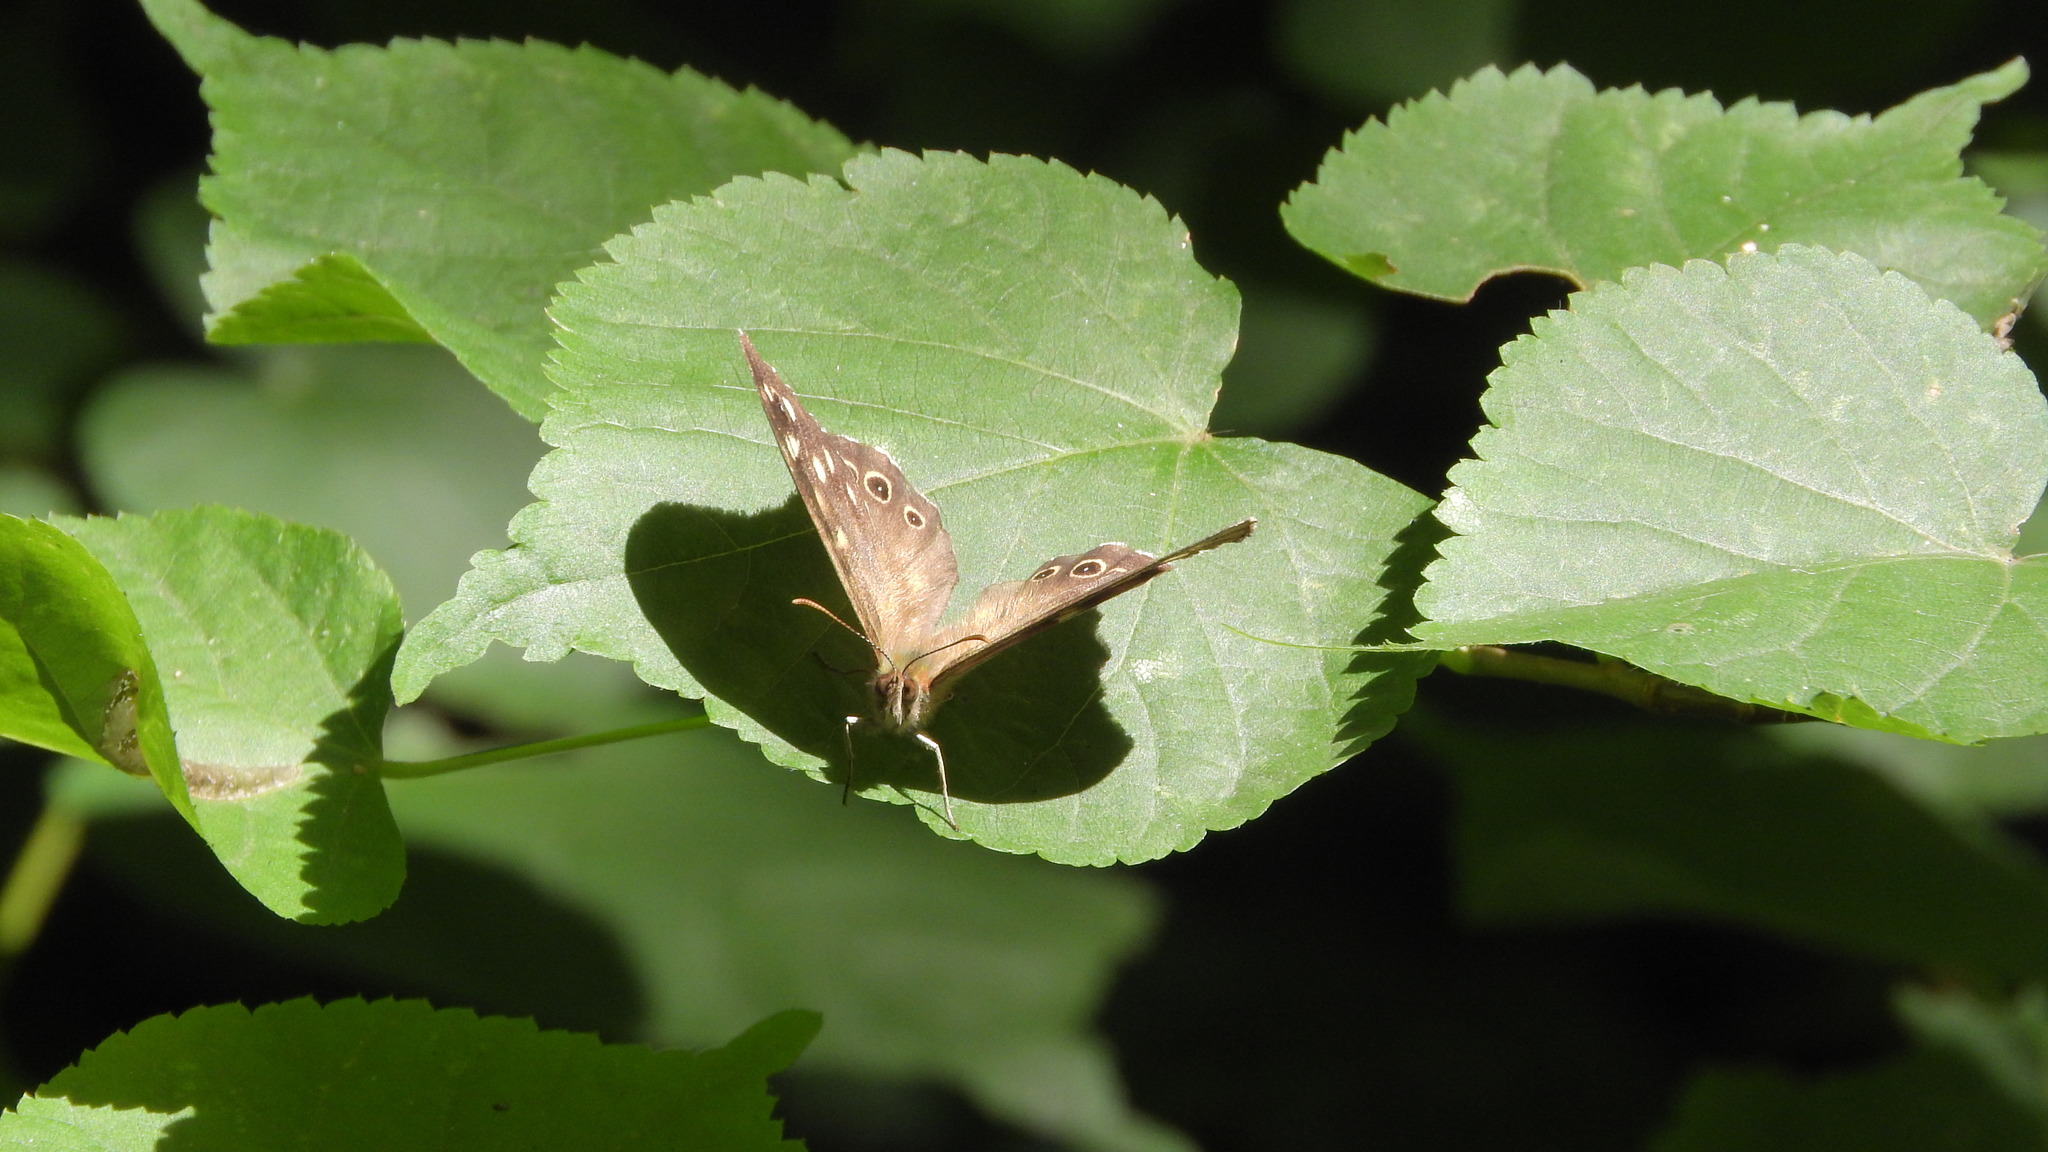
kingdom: Animalia
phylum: Arthropoda
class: Insecta
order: Lepidoptera
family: Nymphalidae
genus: Pararge
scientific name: Pararge aegeria
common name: Speckled wood
